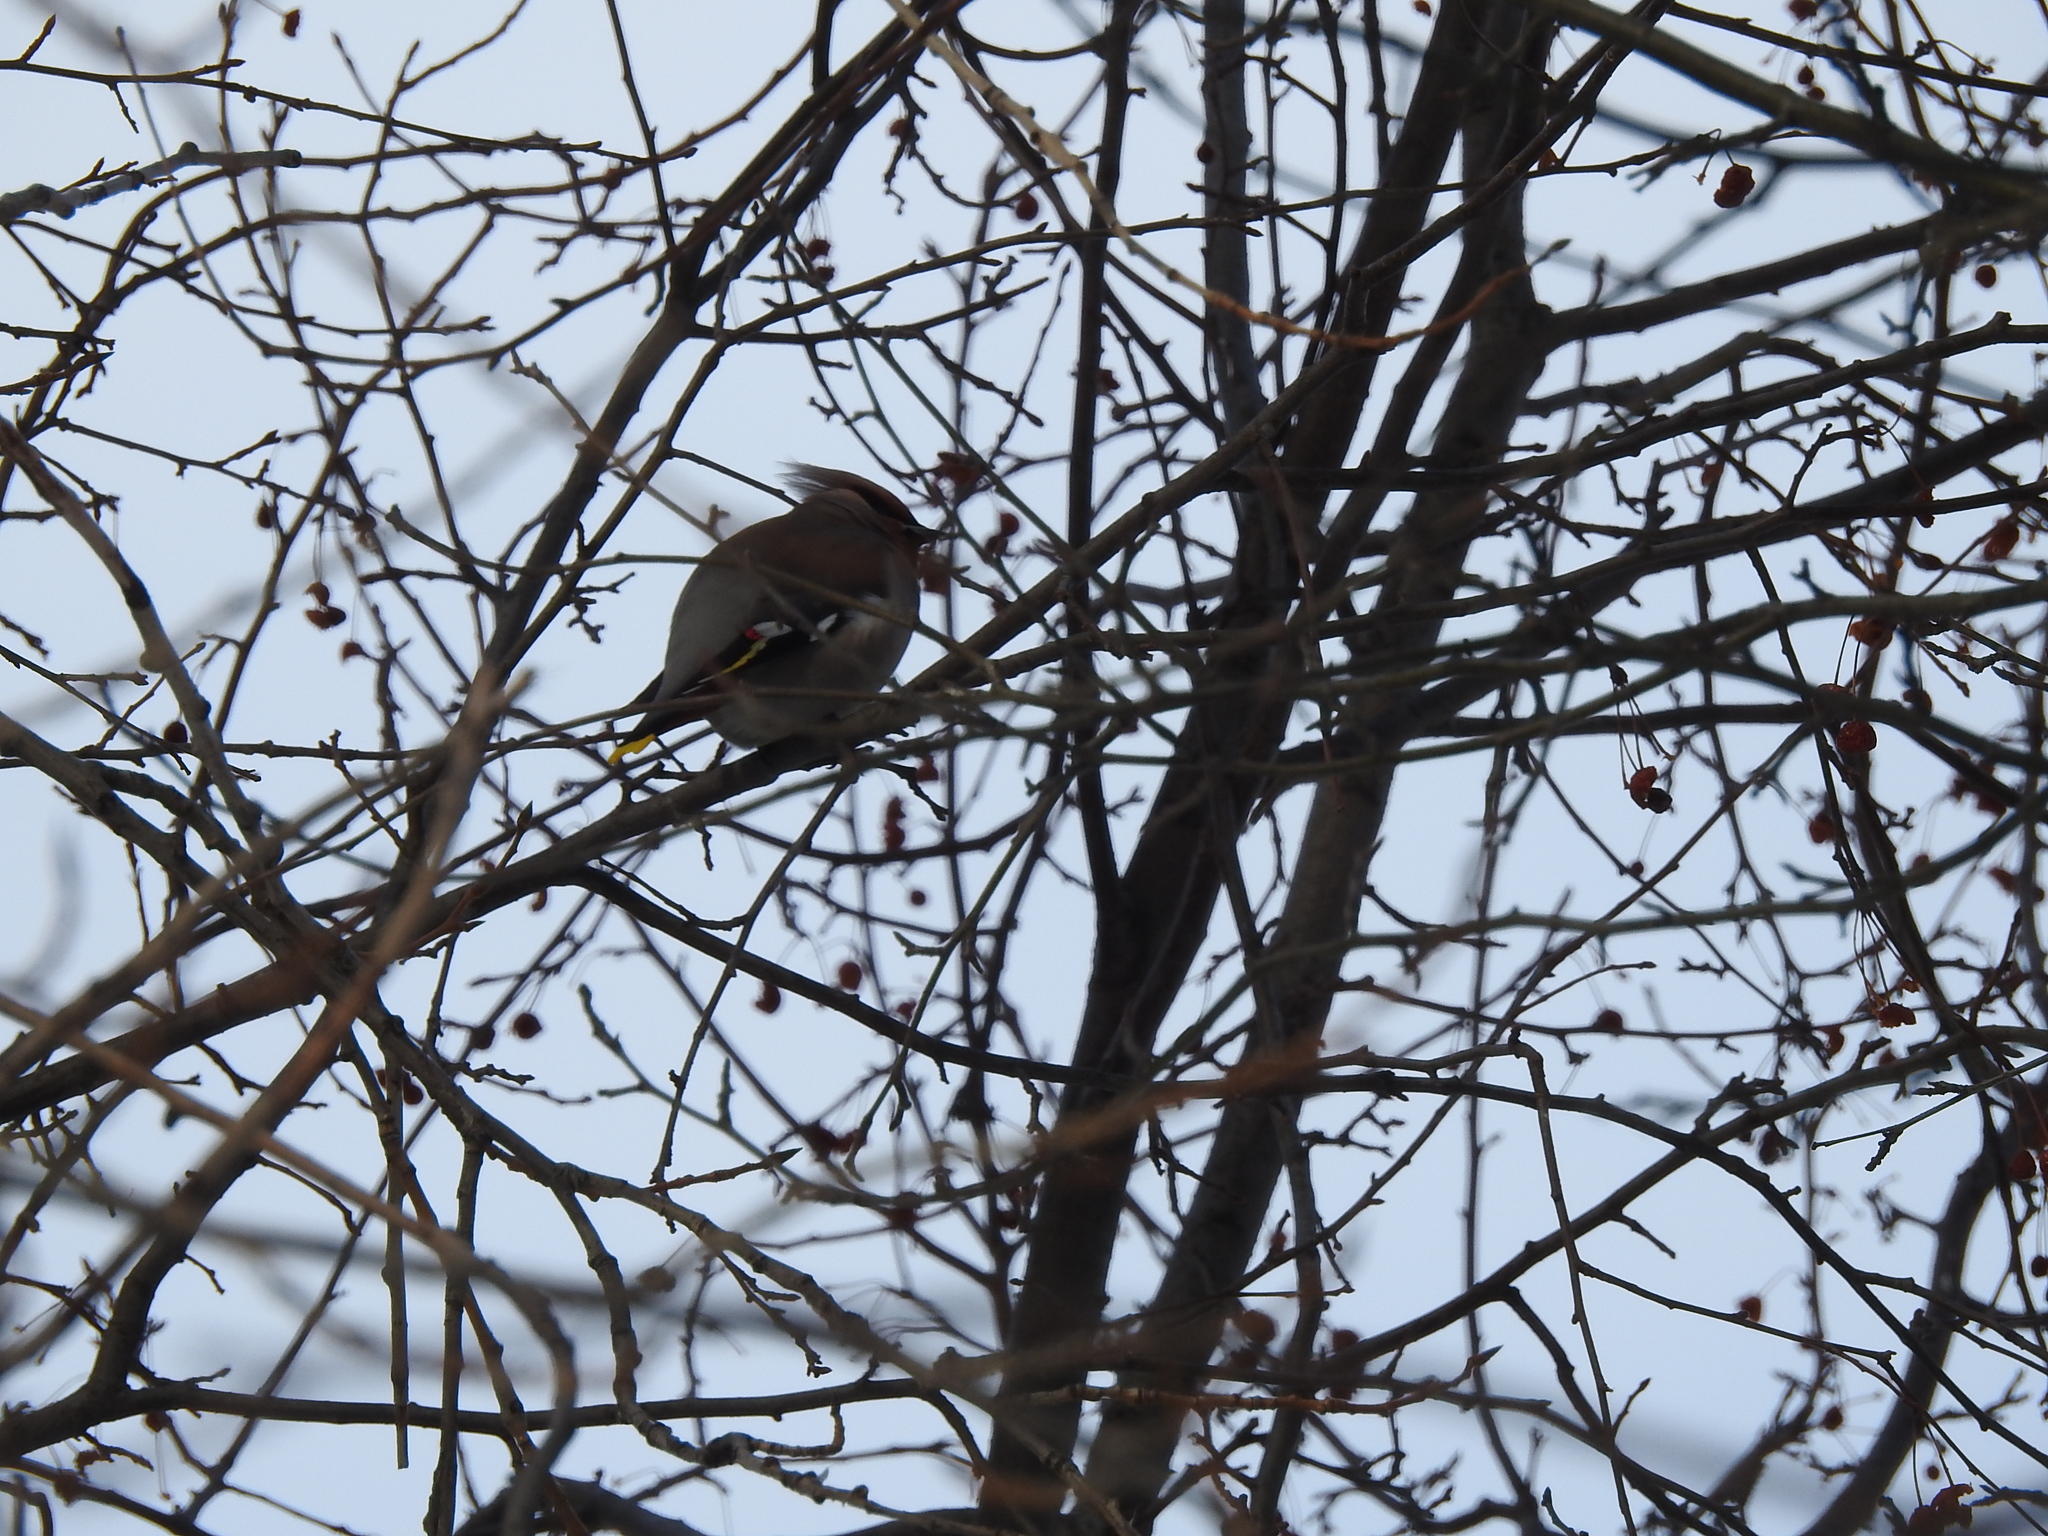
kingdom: Animalia
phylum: Chordata
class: Aves
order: Passeriformes
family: Bombycillidae
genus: Bombycilla
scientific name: Bombycilla garrulus
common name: Bohemian waxwing
